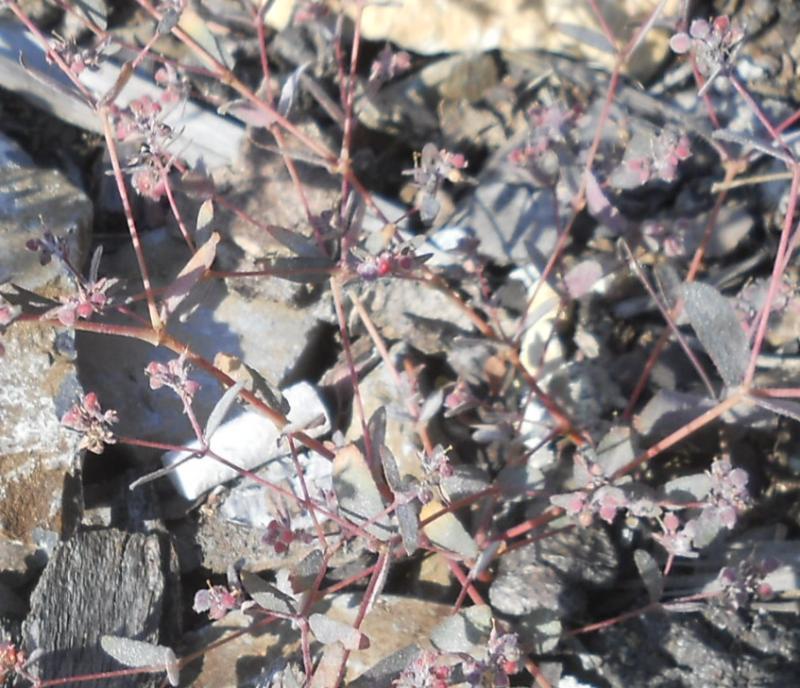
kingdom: Plantae
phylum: Tracheophyta
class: Magnoliopsida
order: Malpighiales
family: Euphorbiaceae
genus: Euphorbia
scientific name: Euphorbia nutans
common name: Eyebane
